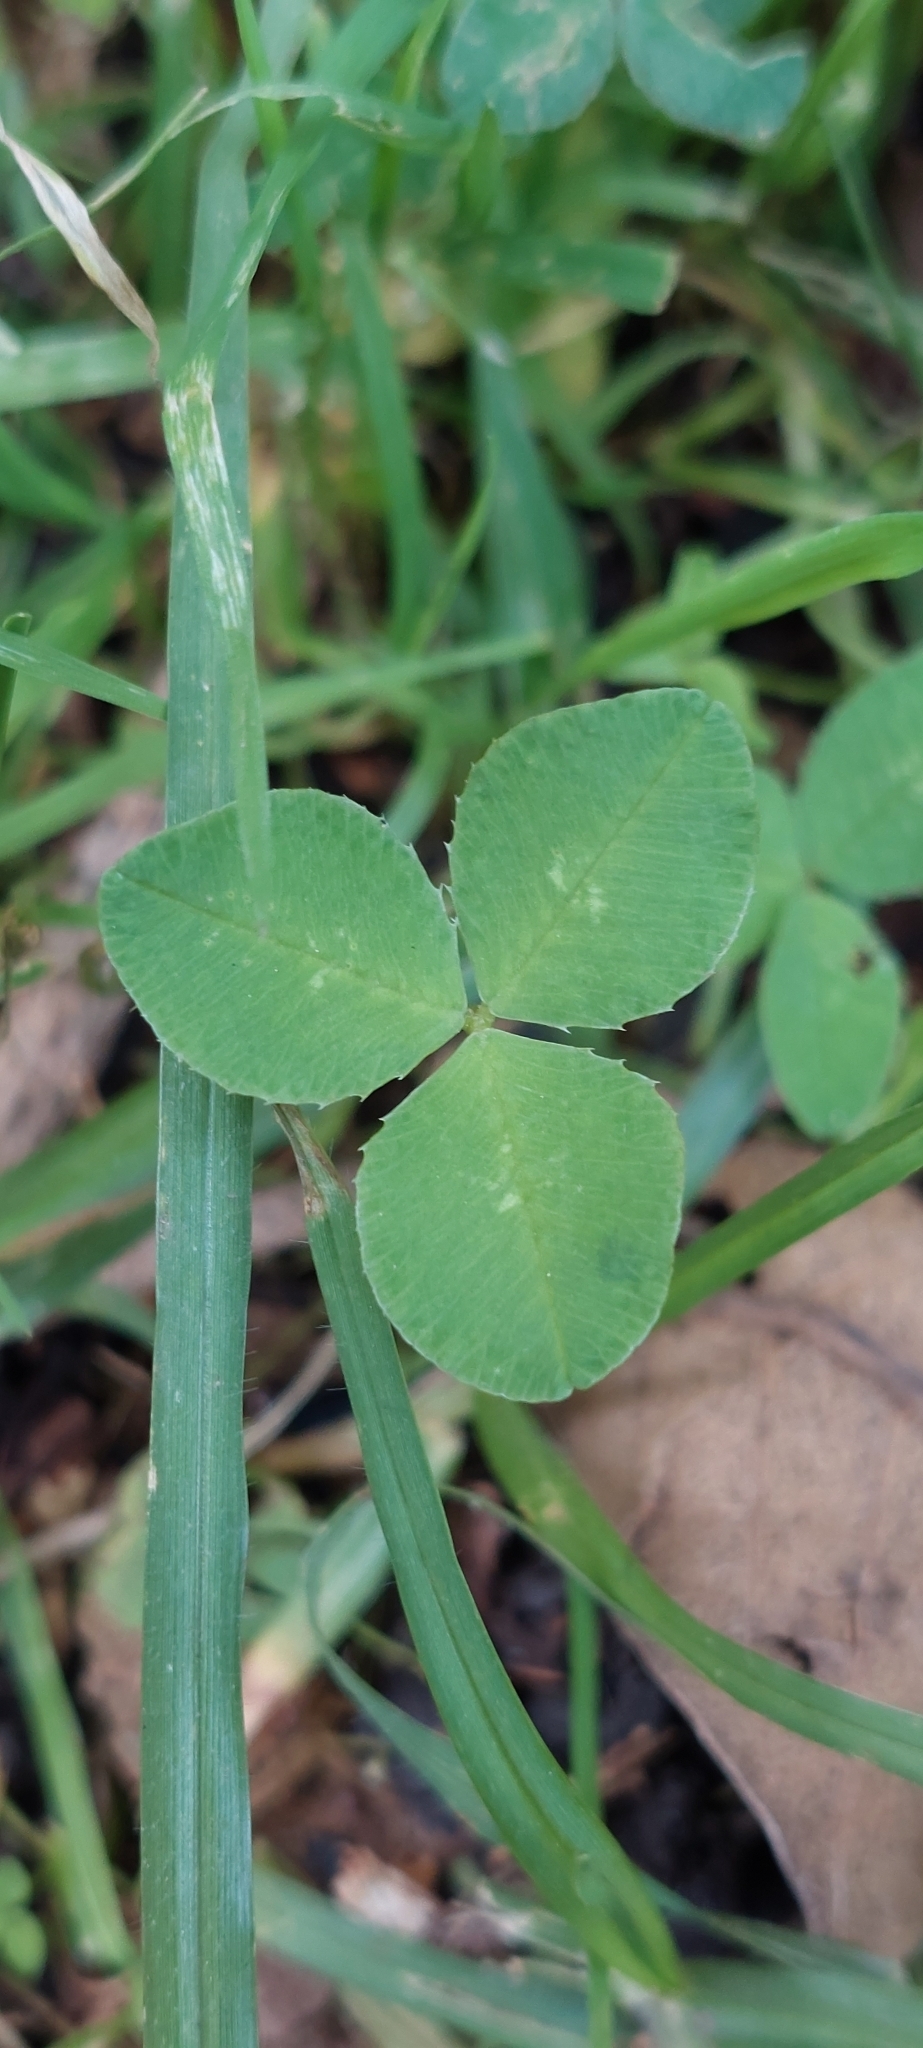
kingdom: Plantae
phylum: Tracheophyta
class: Magnoliopsida
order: Fabales
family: Fabaceae
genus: Trifolium
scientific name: Trifolium repens
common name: White clover
